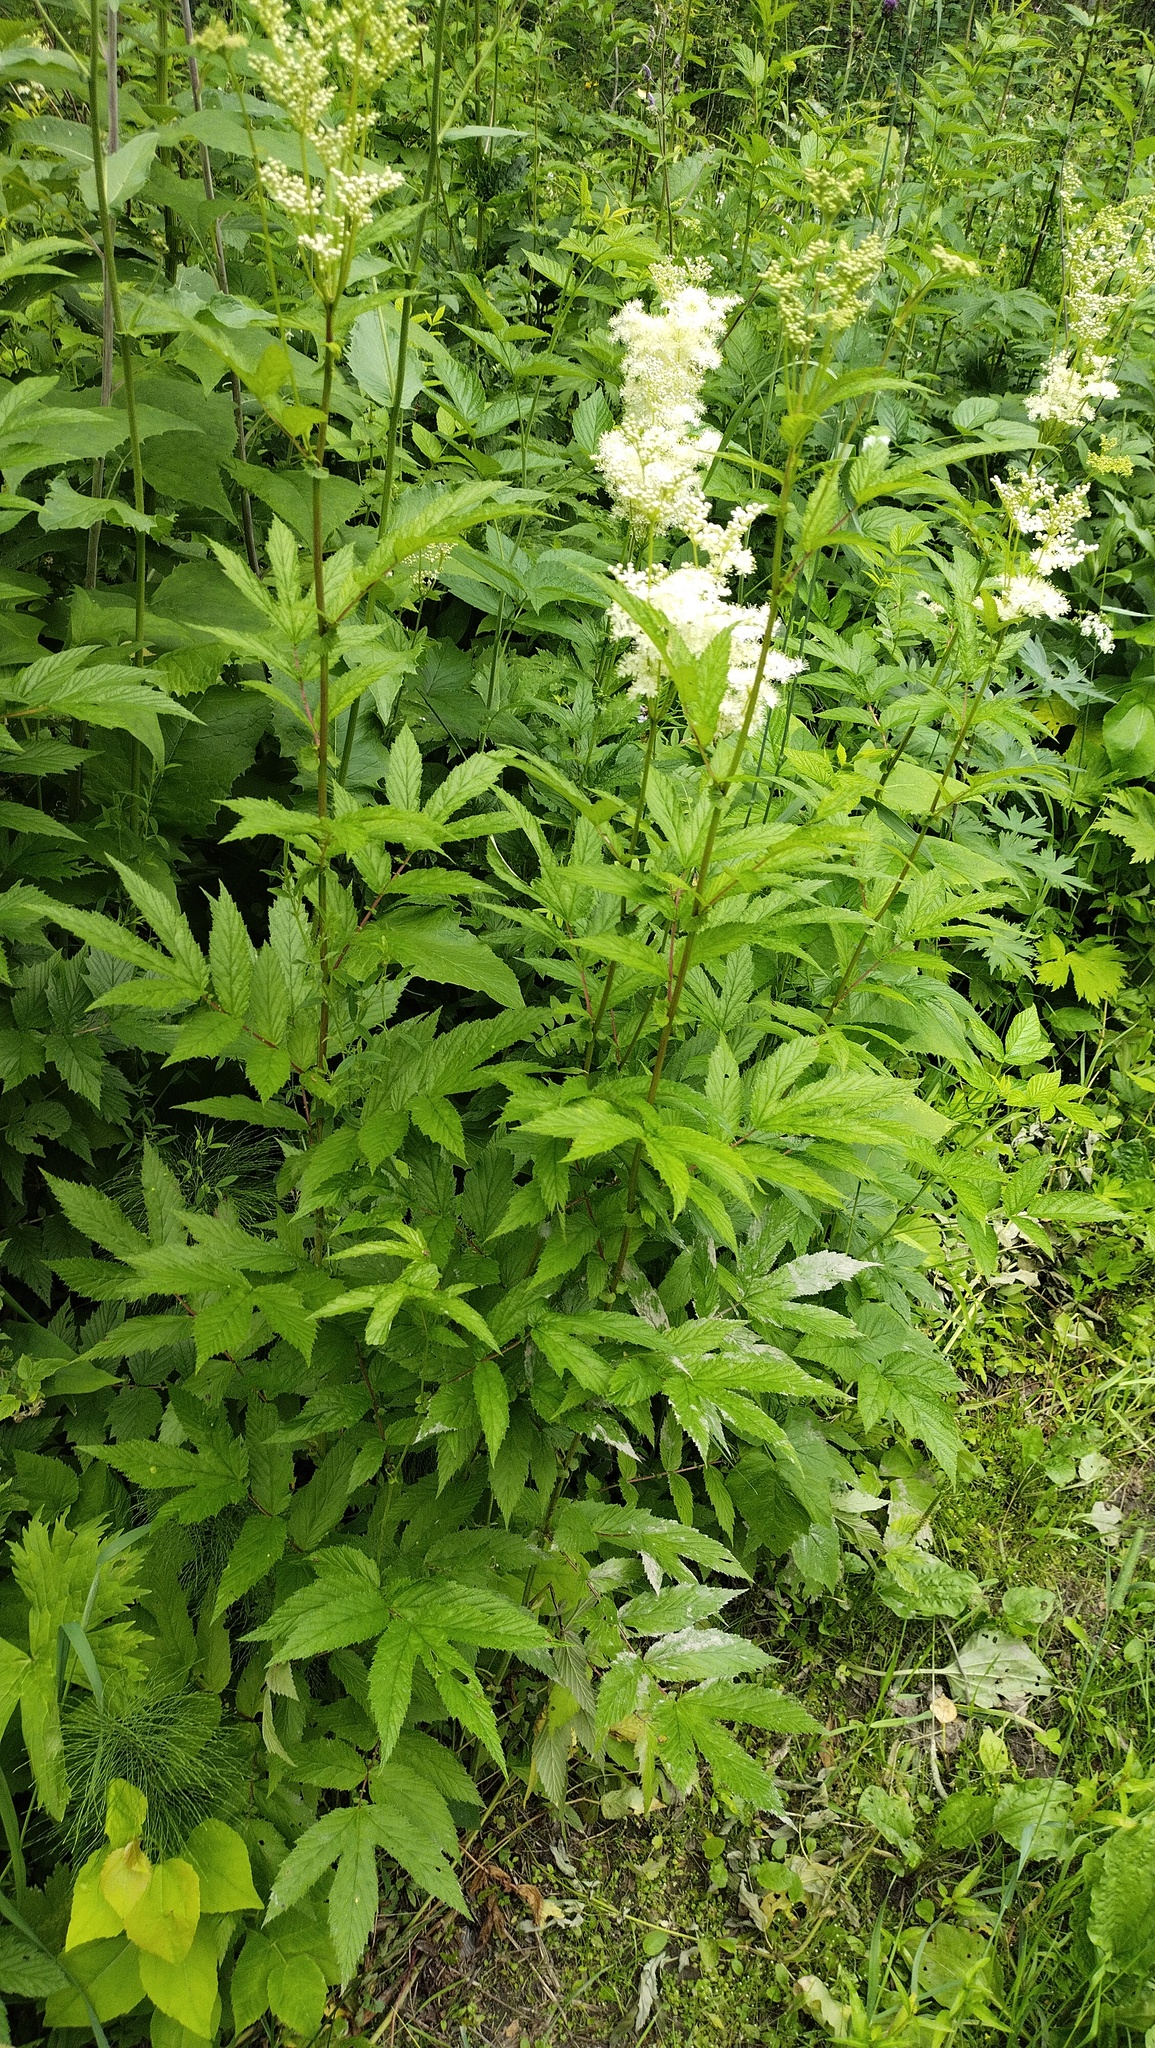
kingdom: Plantae
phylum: Tracheophyta
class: Magnoliopsida
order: Rosales
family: Rosaceae
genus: Filipendula
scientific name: Filipendula ulmaria
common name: Meadowsweet
